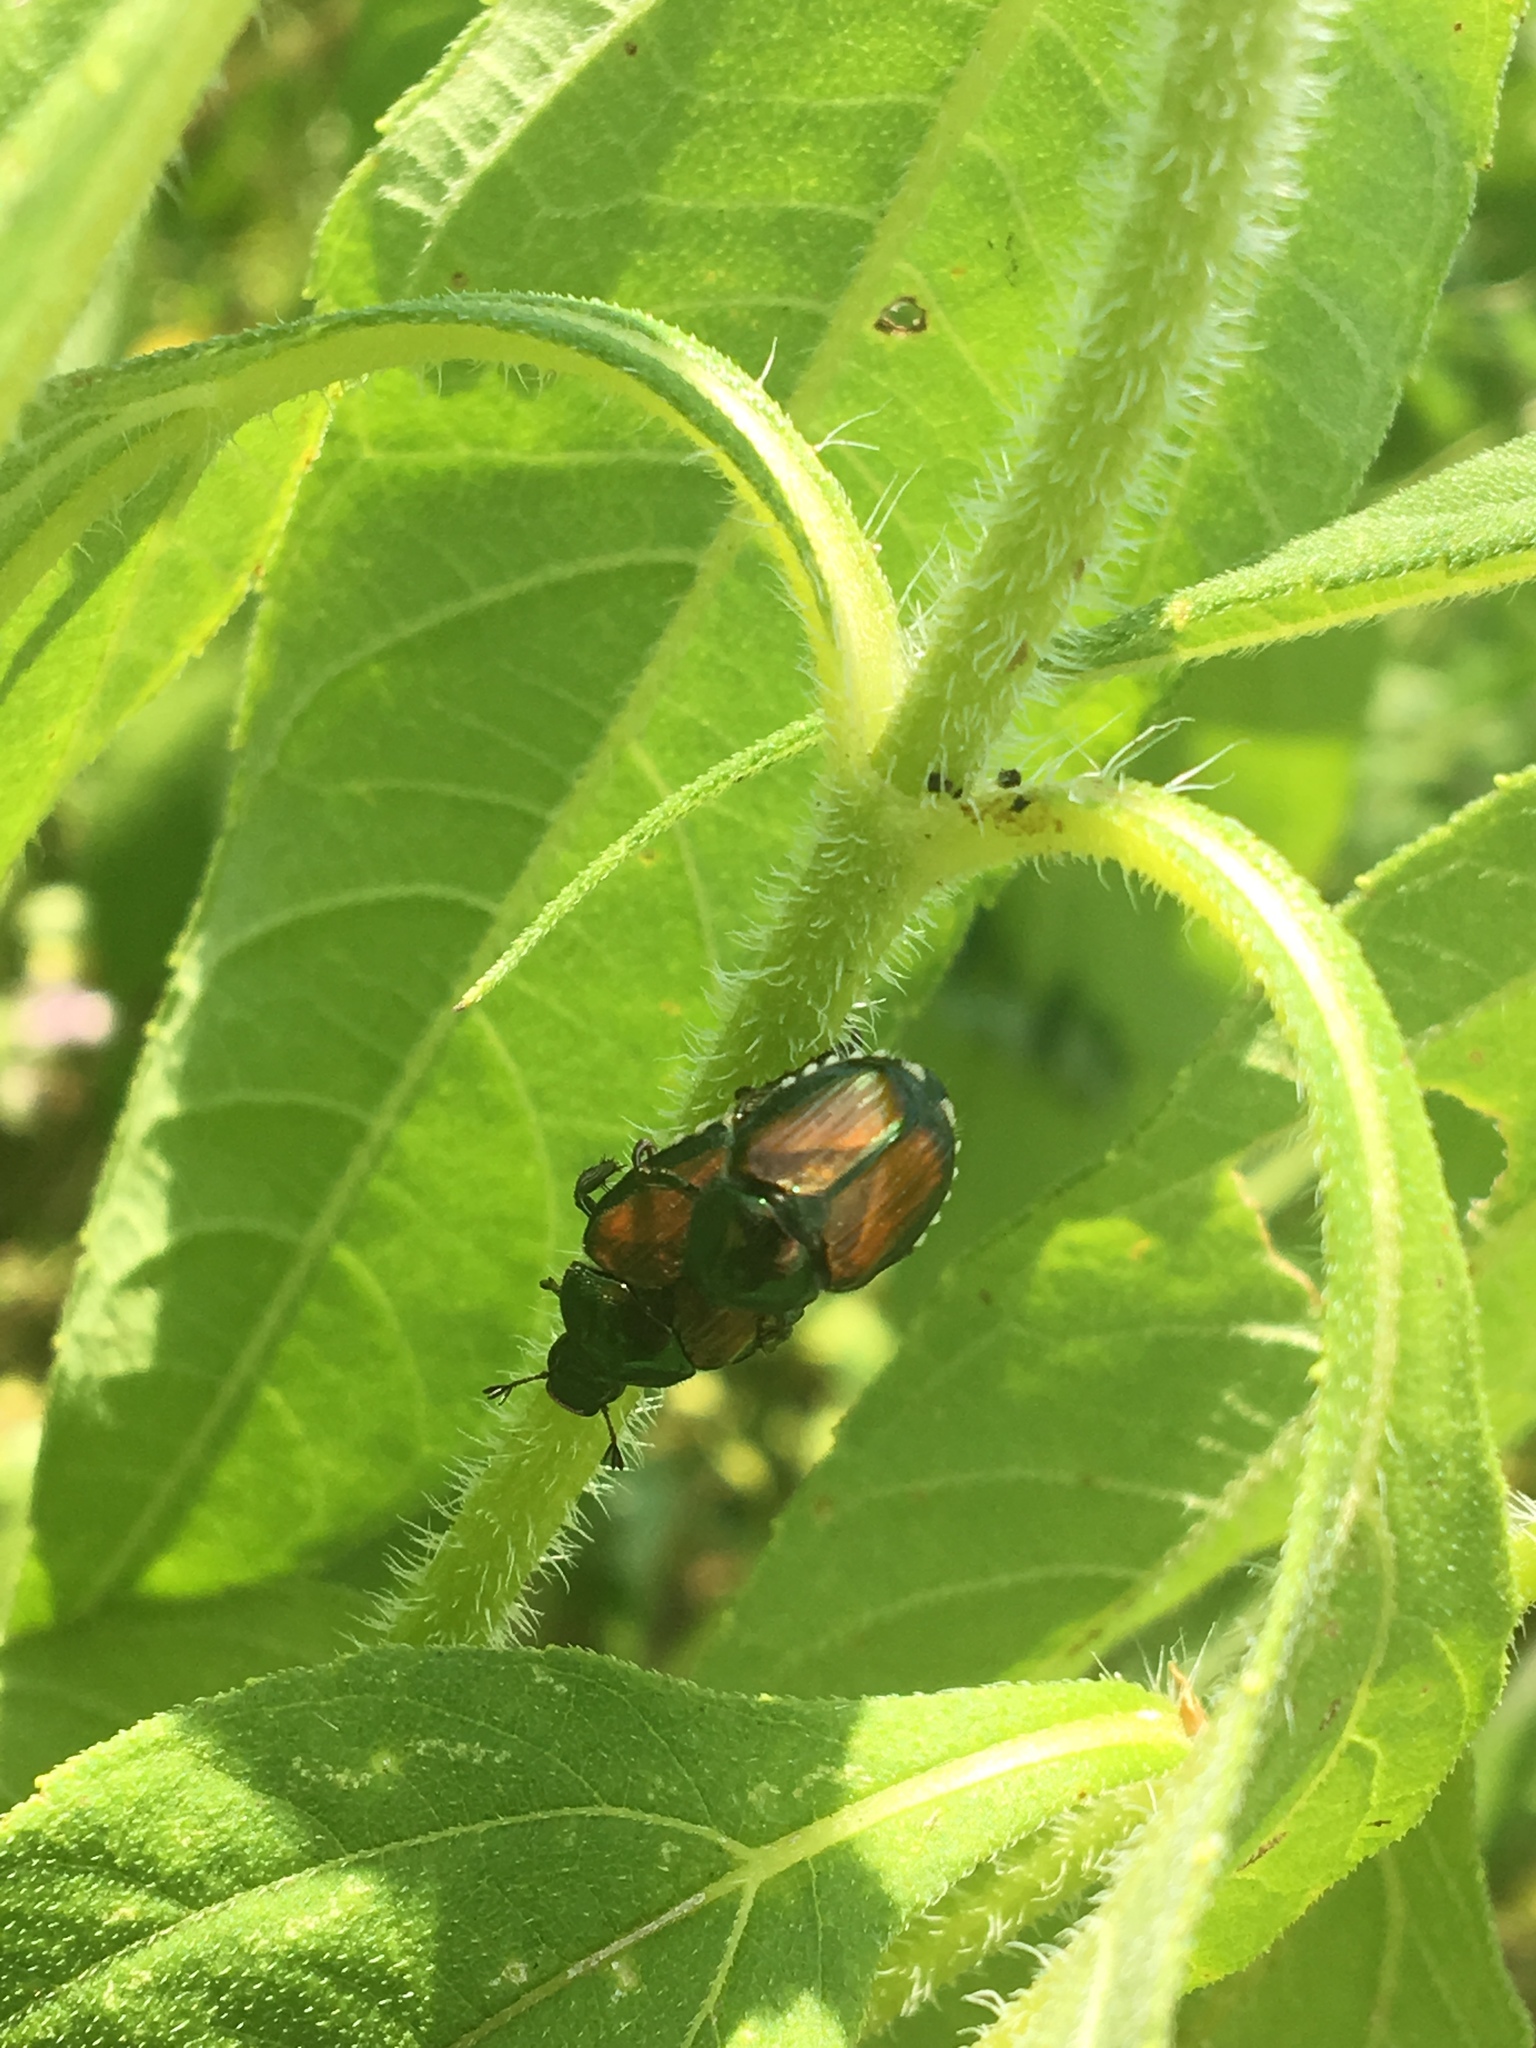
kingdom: Animalia
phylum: Arthropoda
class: Insecta
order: Coleoptera
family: Scarabaeidae
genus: Popillia
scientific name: Popillia japonica
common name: Japanese beetle
